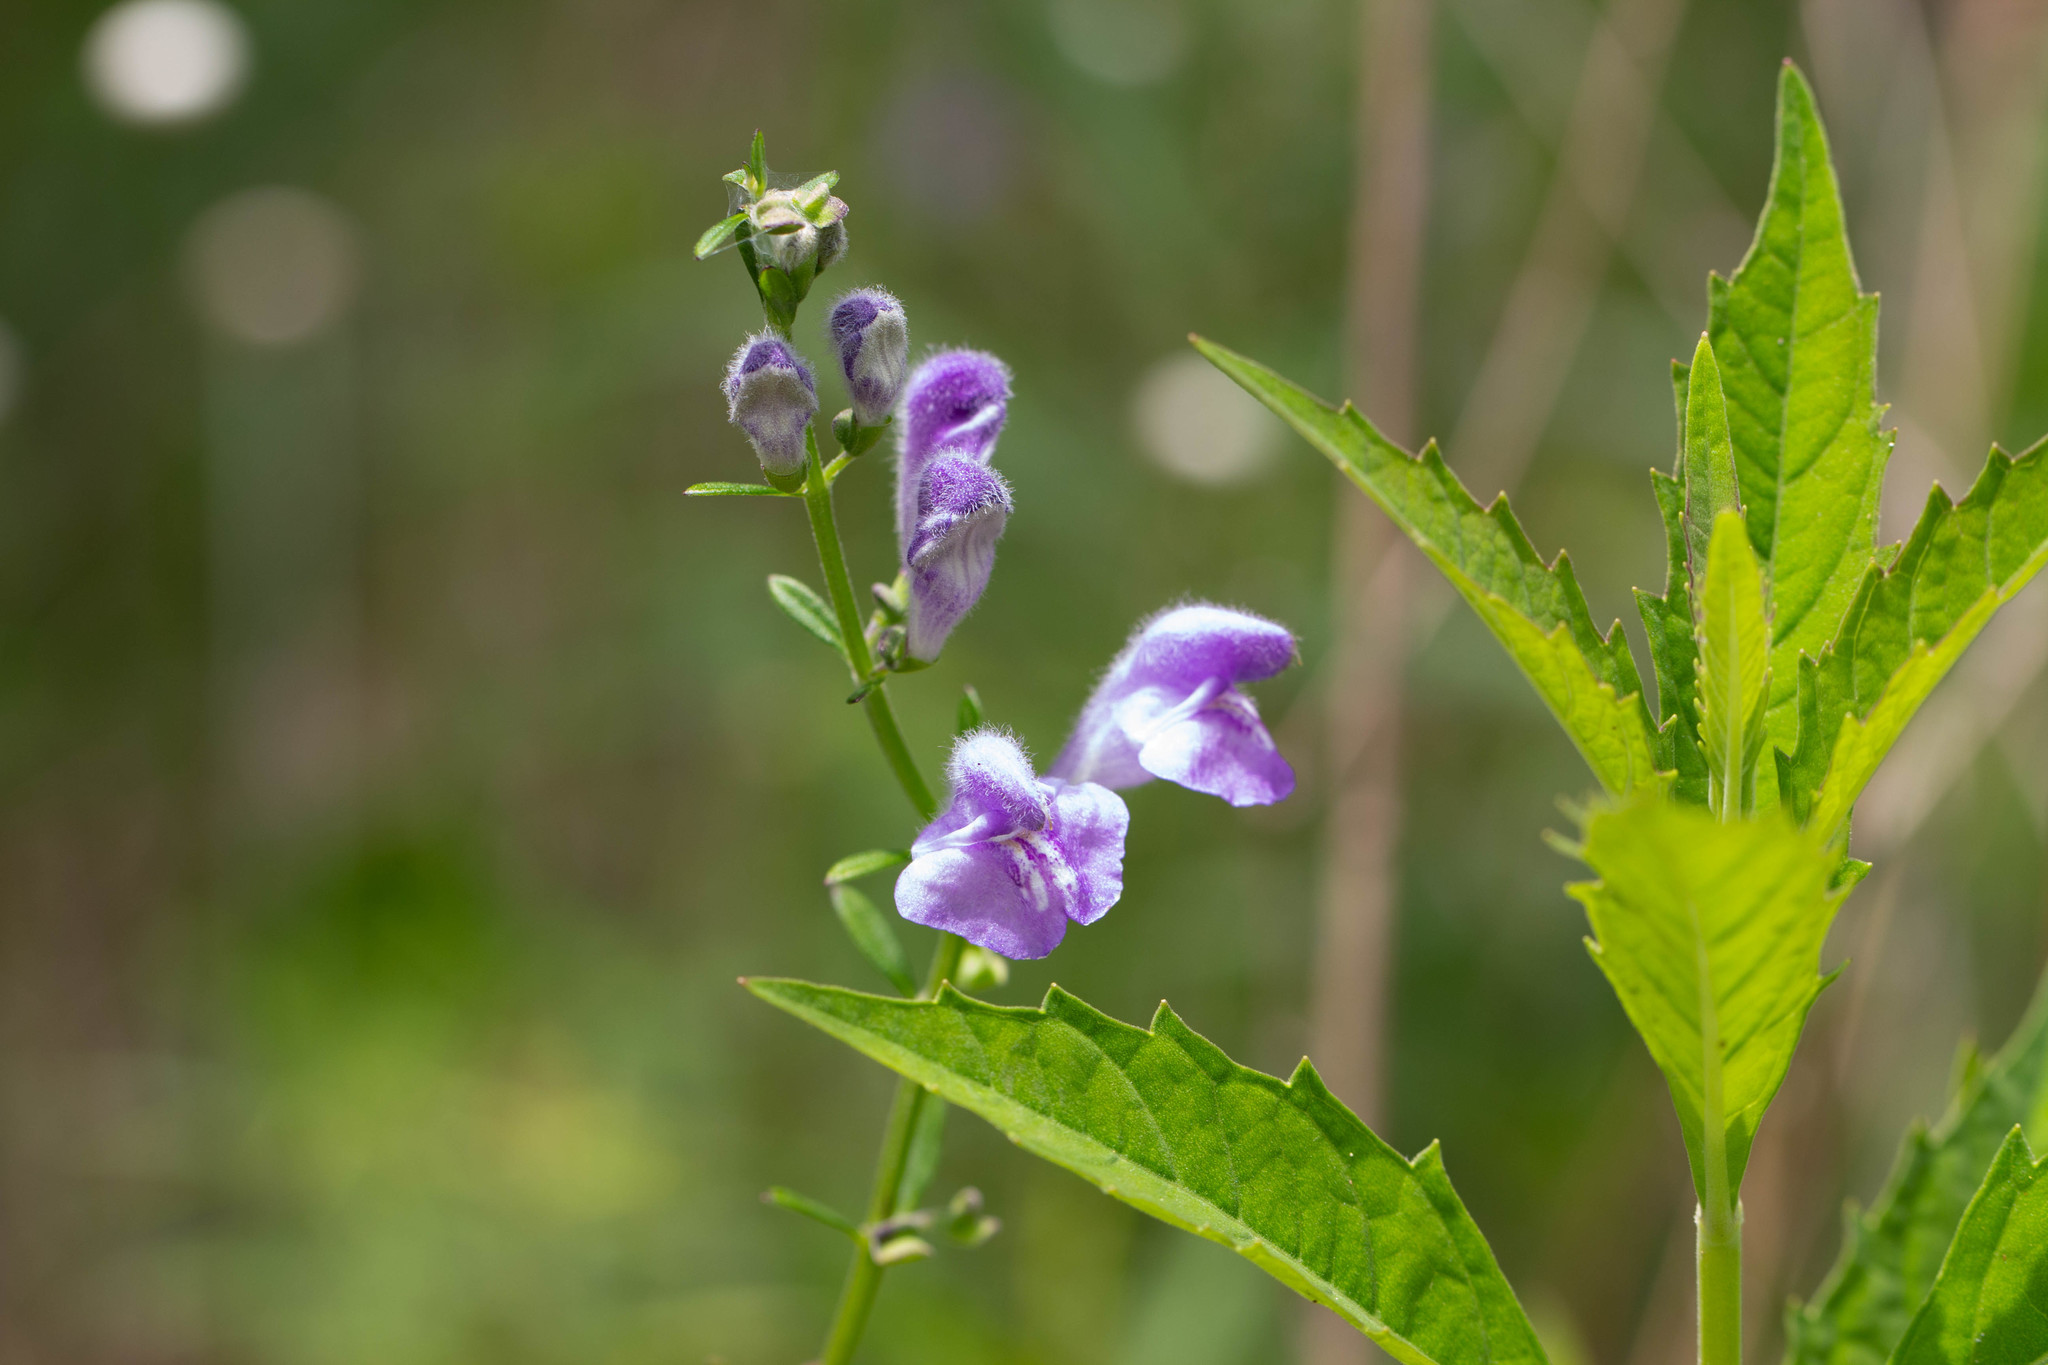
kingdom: Plantae
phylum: Tracheophyta
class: Magnoliopsida
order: Lamiales
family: Lamiaceae
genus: Scutellaria
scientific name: Scutellaria integrifolia
